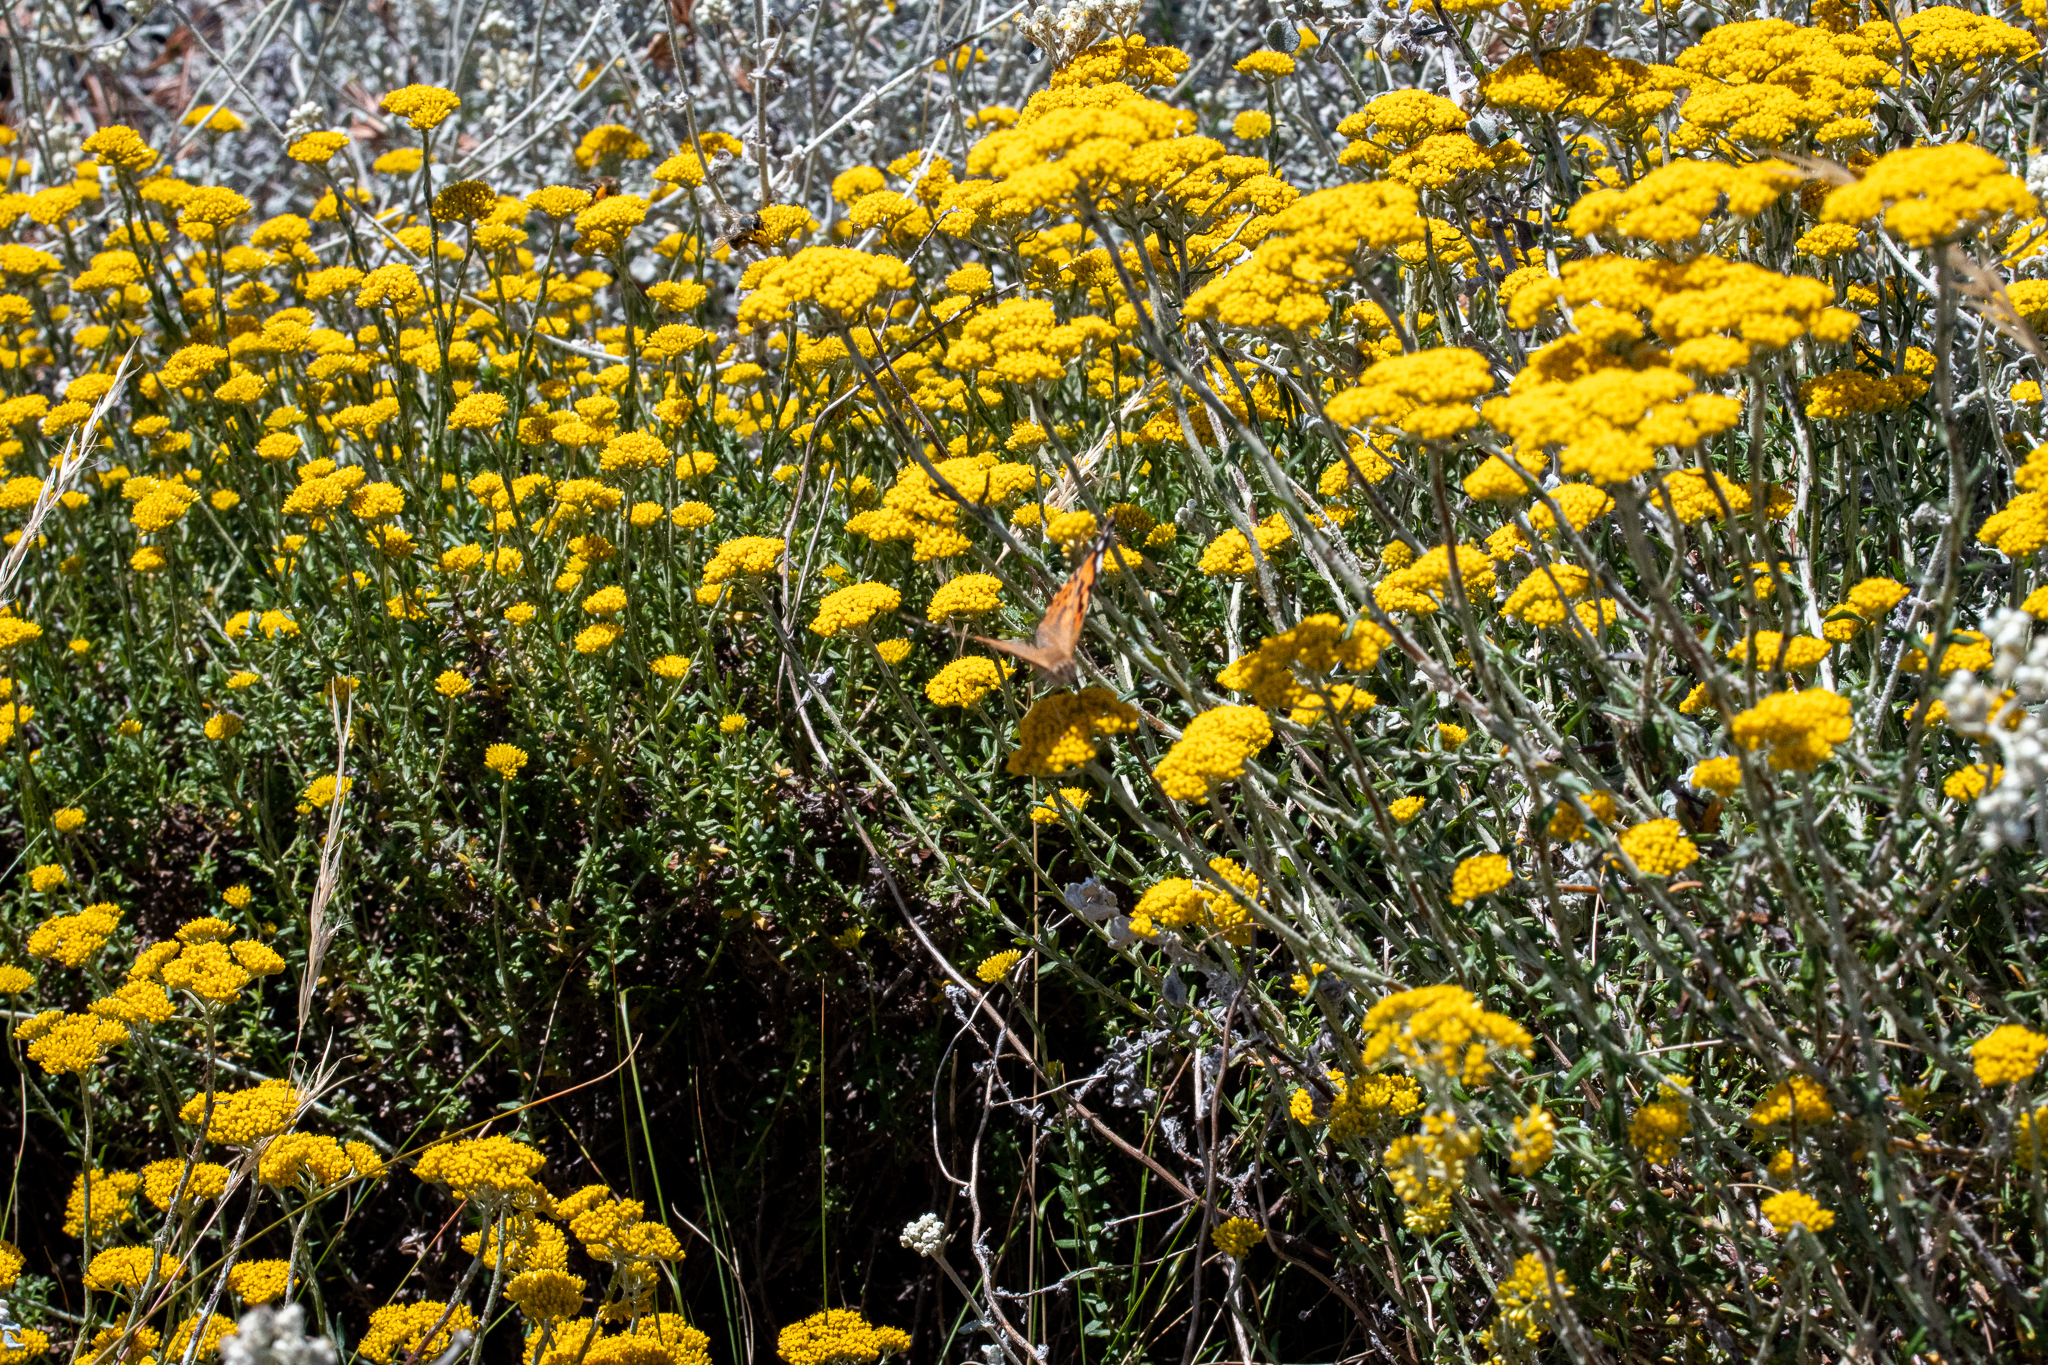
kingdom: Plantae
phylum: Tracheophyta
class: Magnoliopsida
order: Asterales
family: Asteraceae
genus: Helichrysum
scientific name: Helichrysum cymosum
